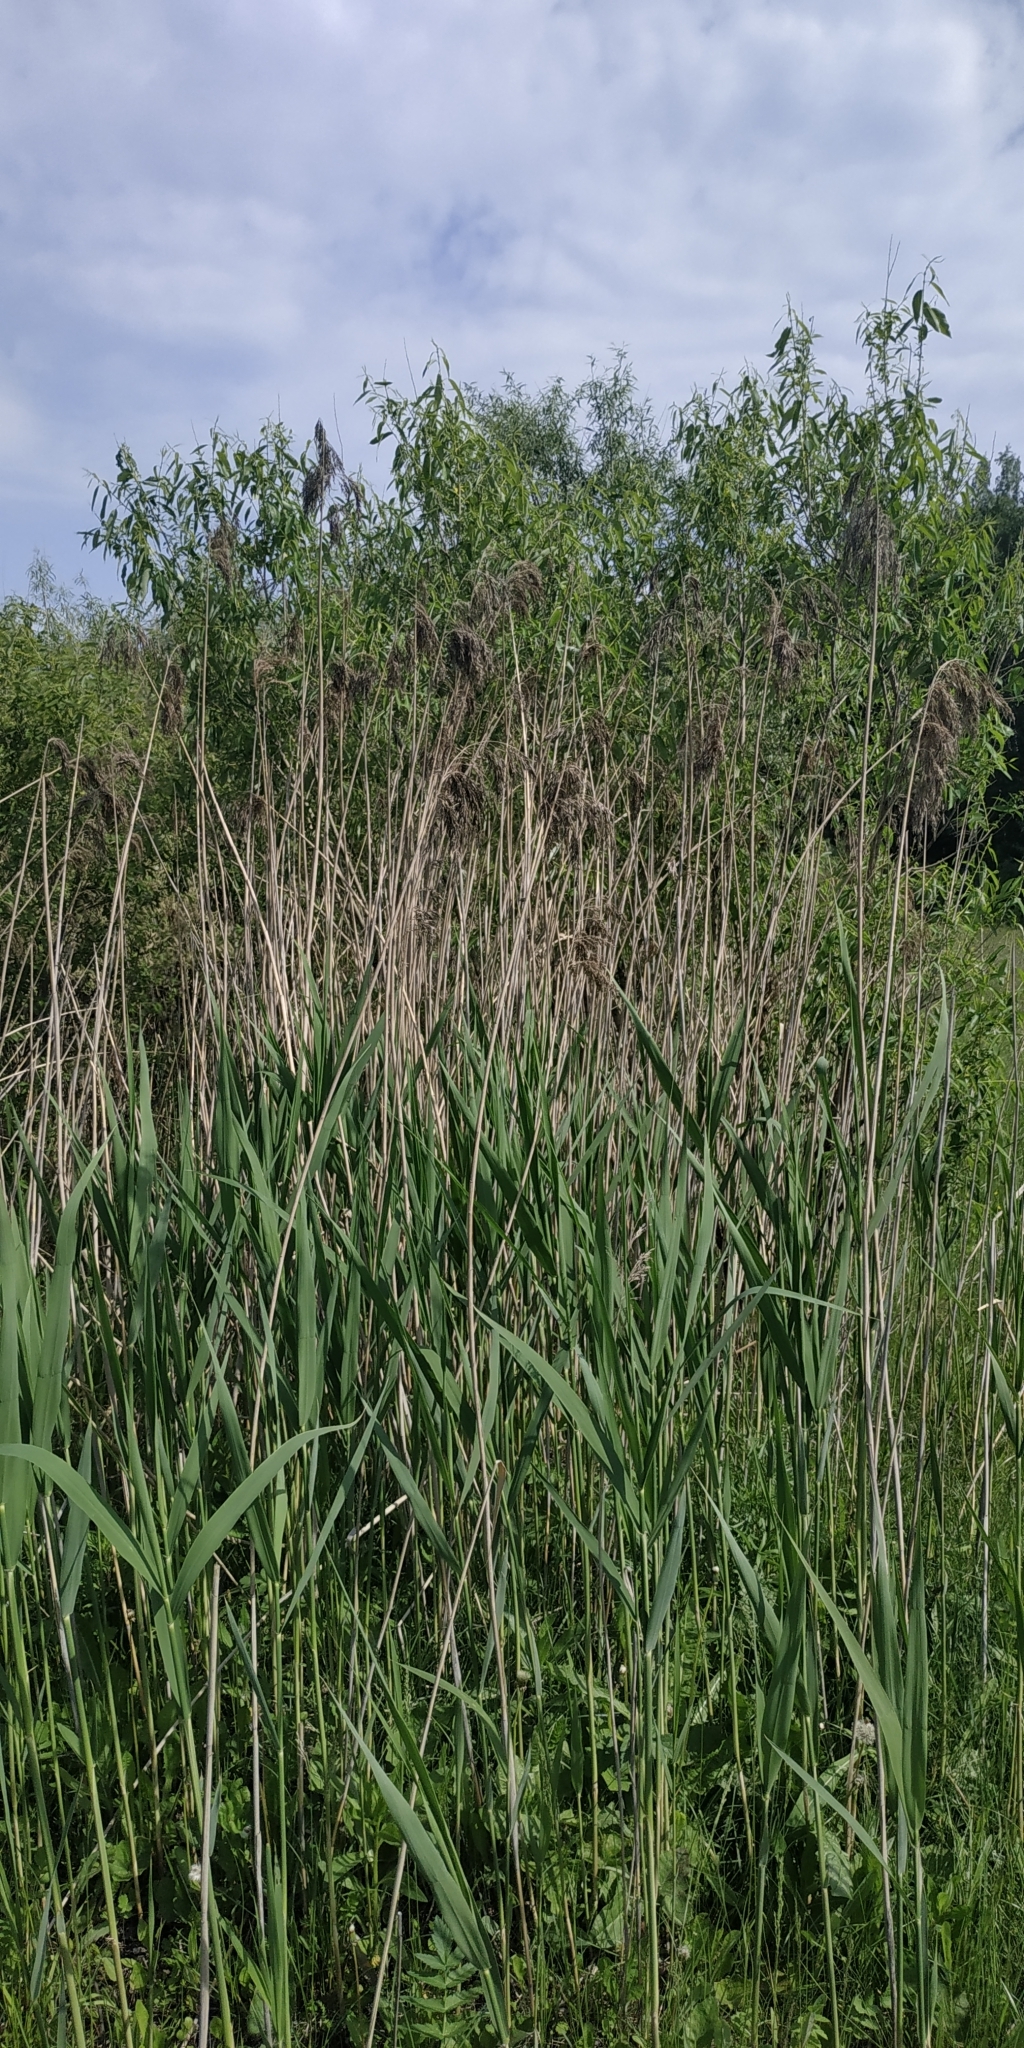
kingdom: Plantae
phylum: Tracheophyta
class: Liliopsida
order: Poales
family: Poaceae
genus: Phragmites
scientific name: Phragmites australis
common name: Common reed
